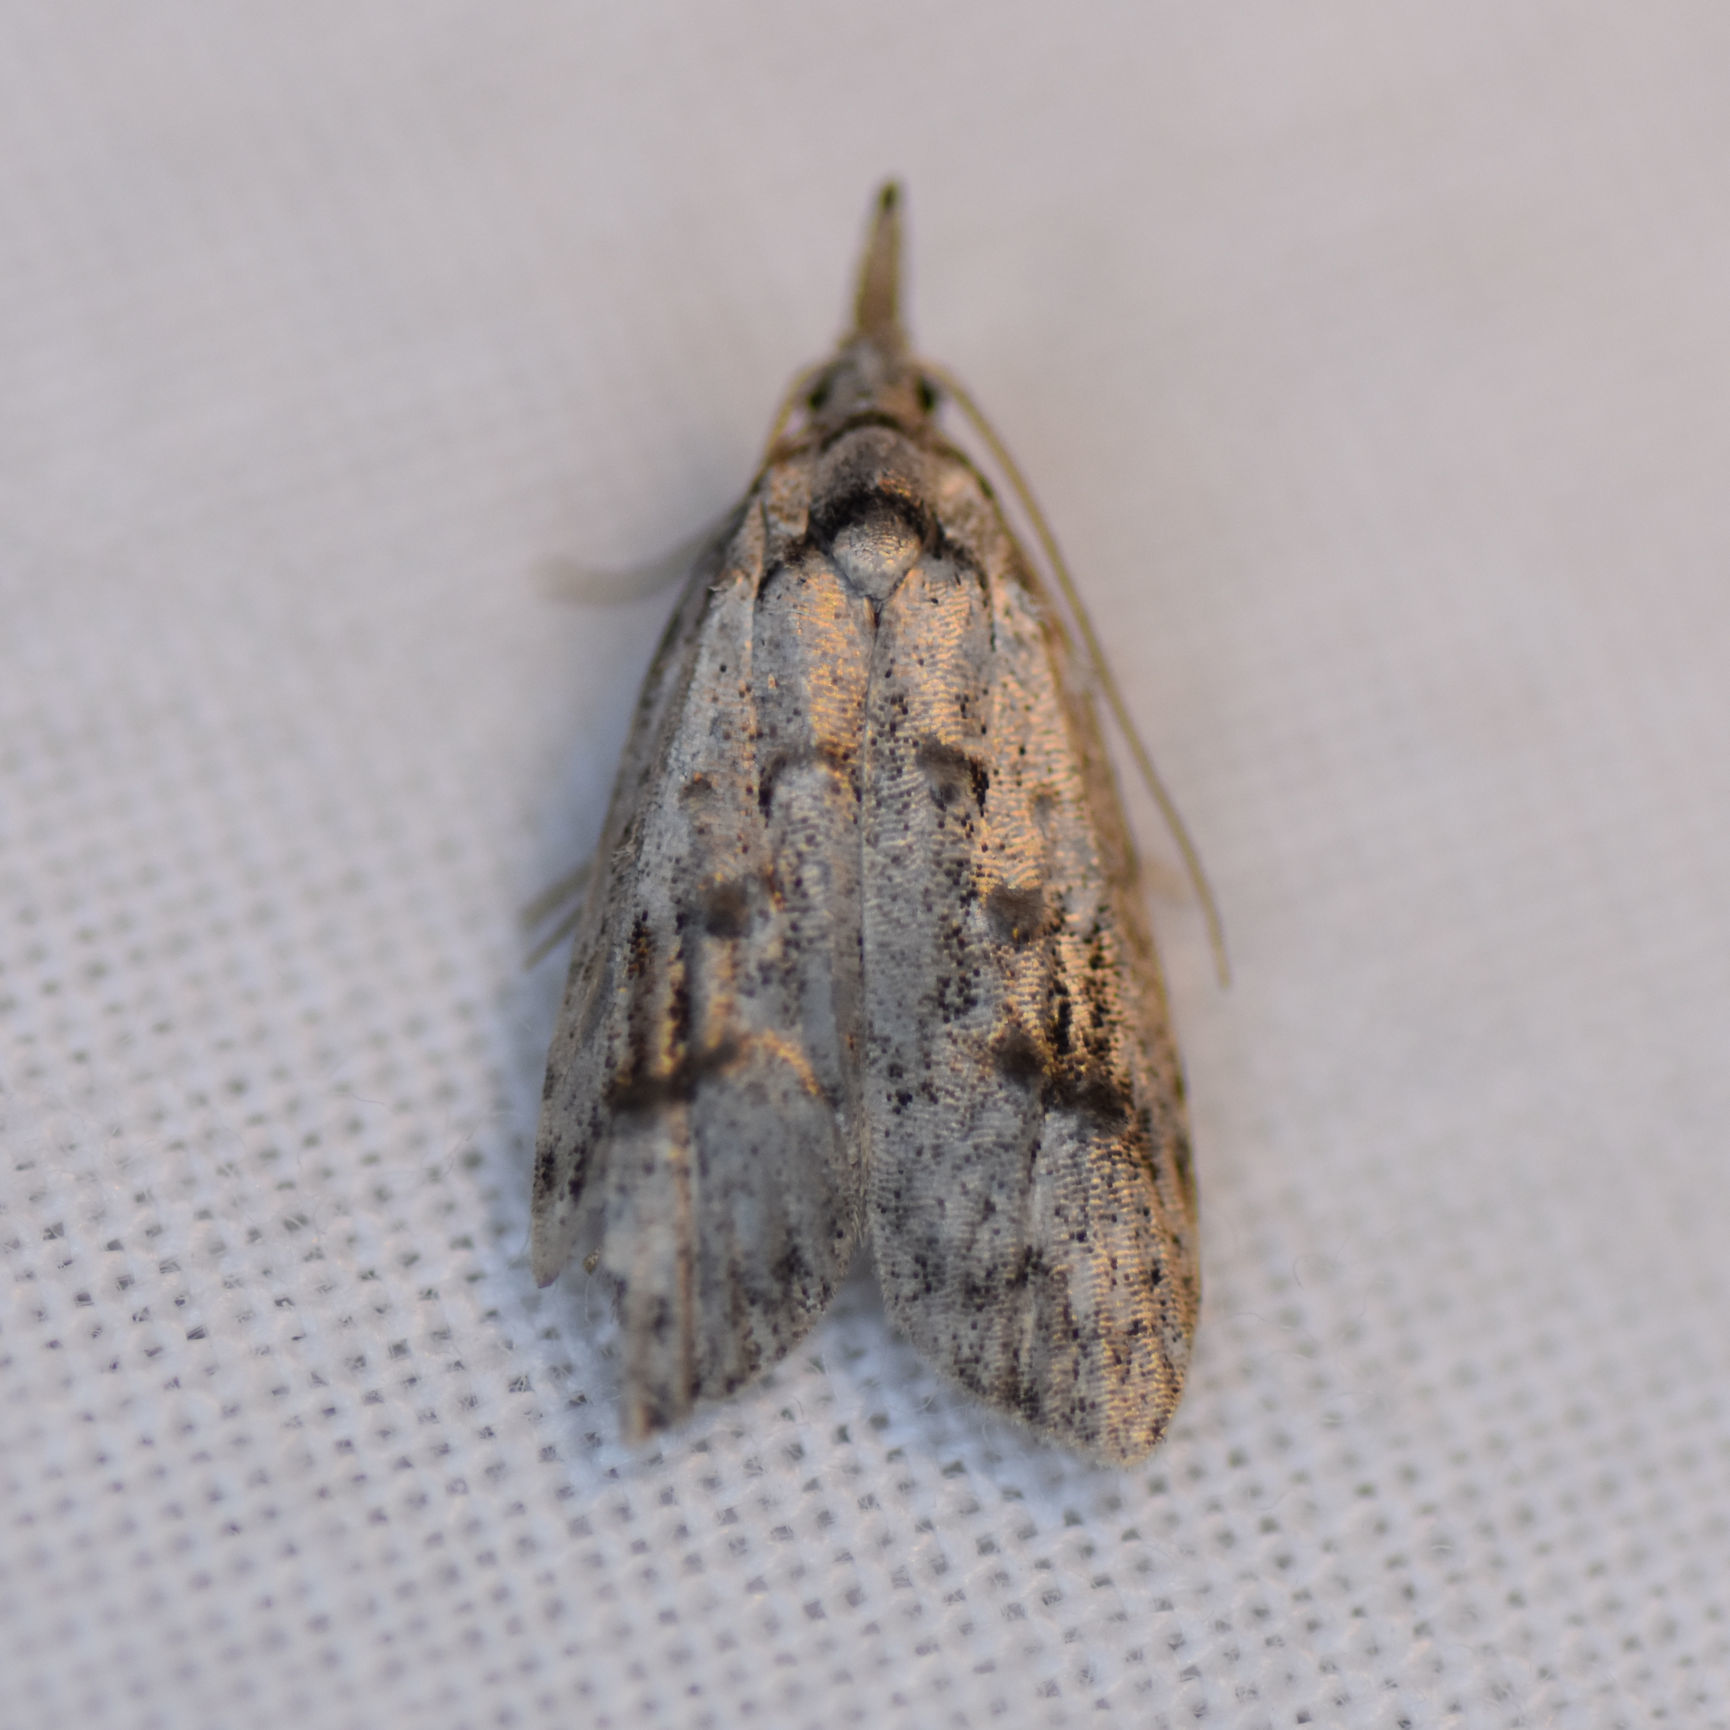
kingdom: Animalia
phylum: Arthropoda
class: Insecta
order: Lepidoptera
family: Carposinidae
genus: Carposina
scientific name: Carposina fernaldana
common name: Currant fruitworm moth
